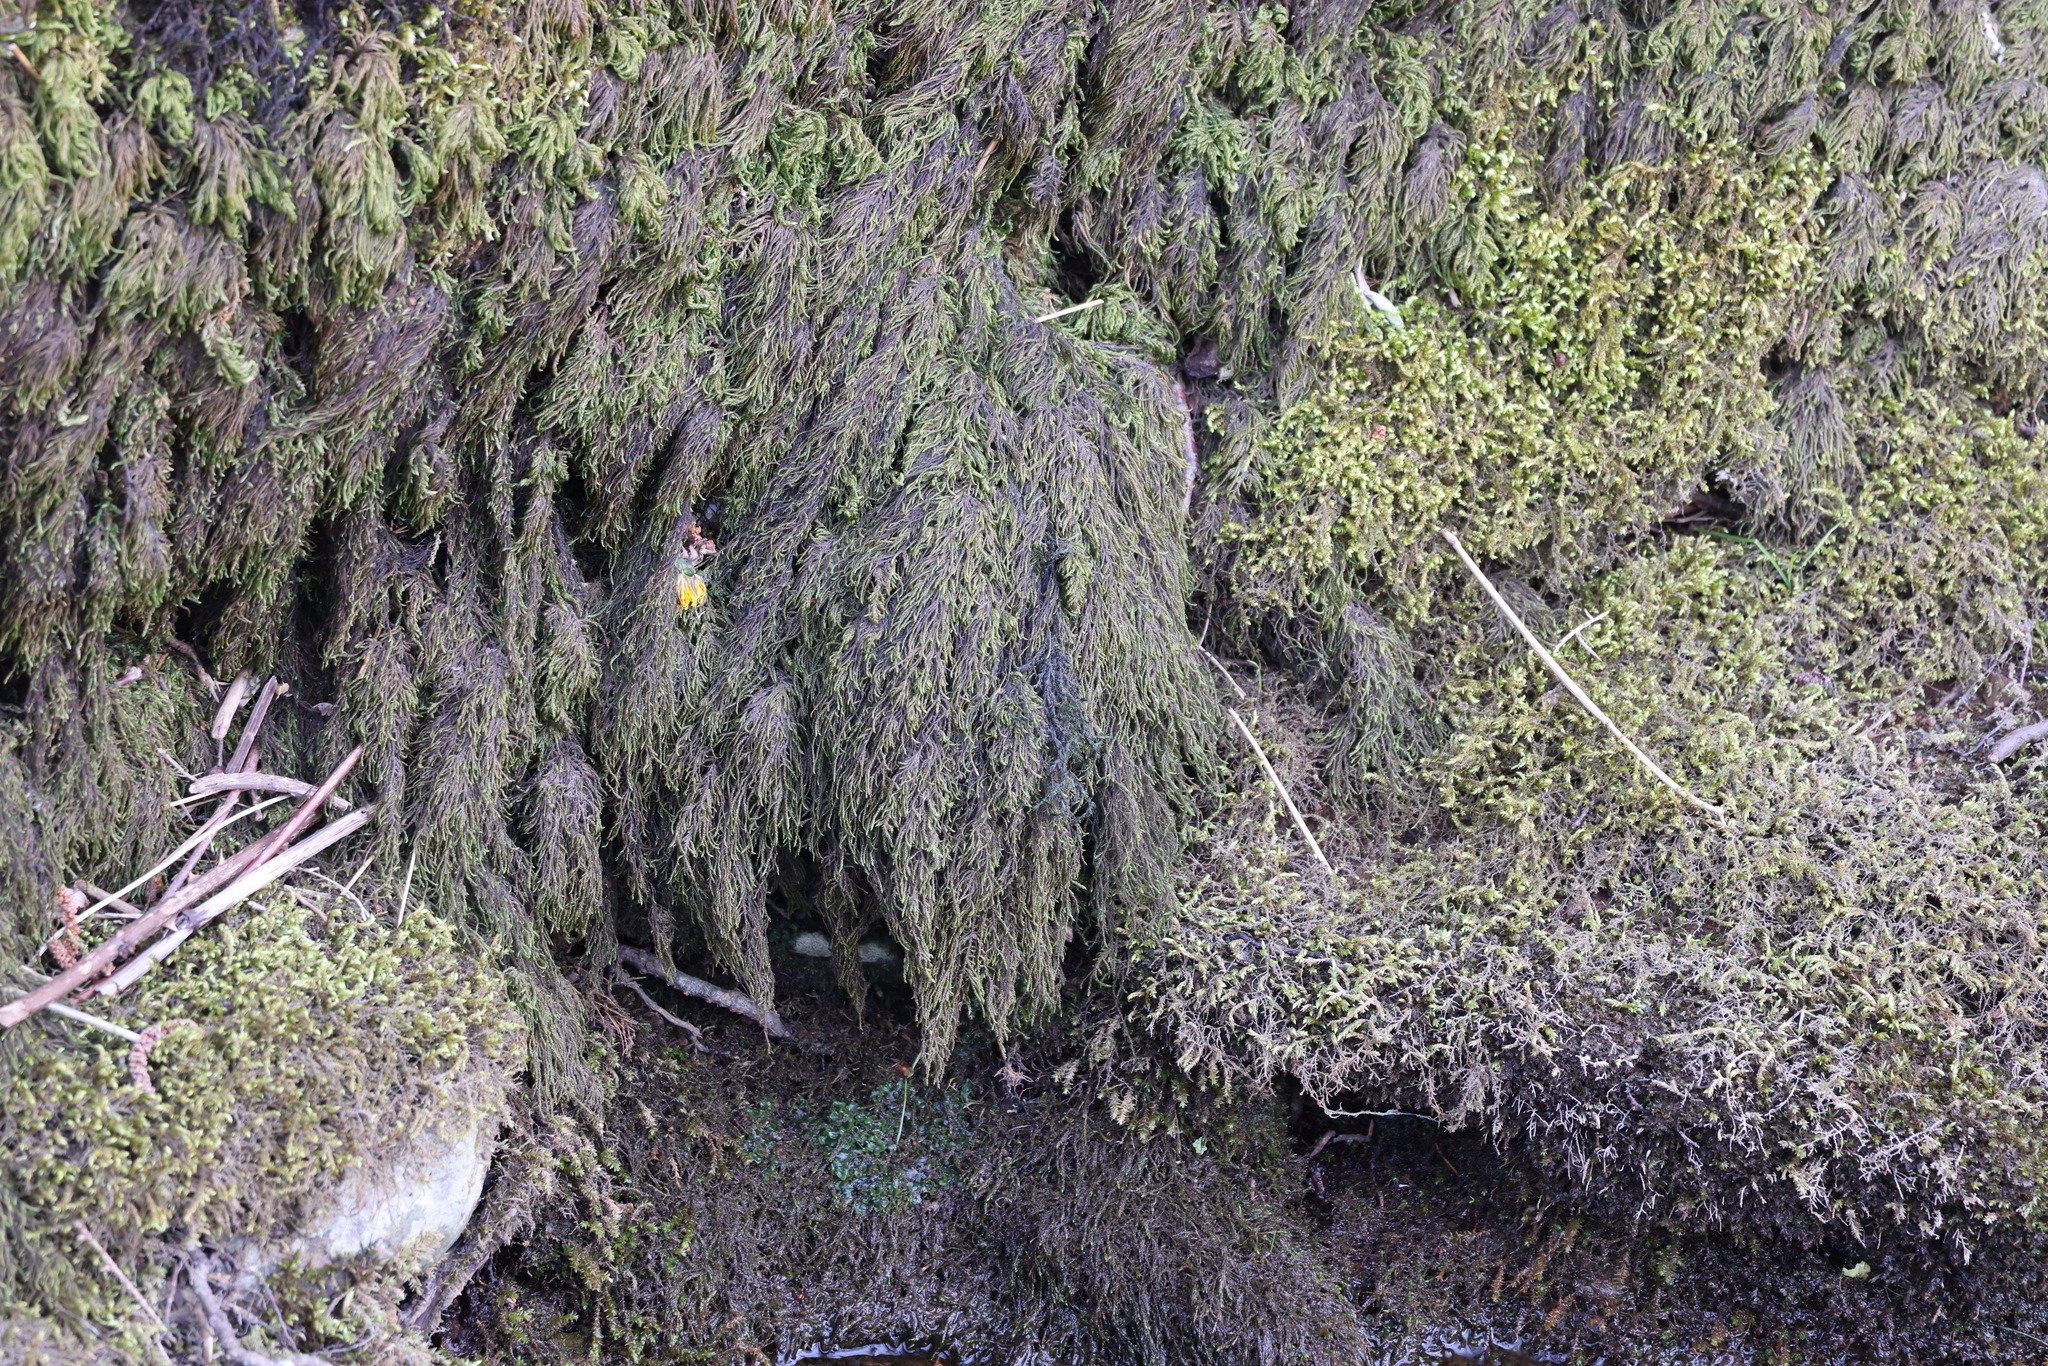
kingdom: Plantae
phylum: Bryophyta
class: Bryopsida
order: Hypnales
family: Neckeraceae
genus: Thamnobryum
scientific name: Thamnobryum alopecurum
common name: Fox-tail feather-moss
